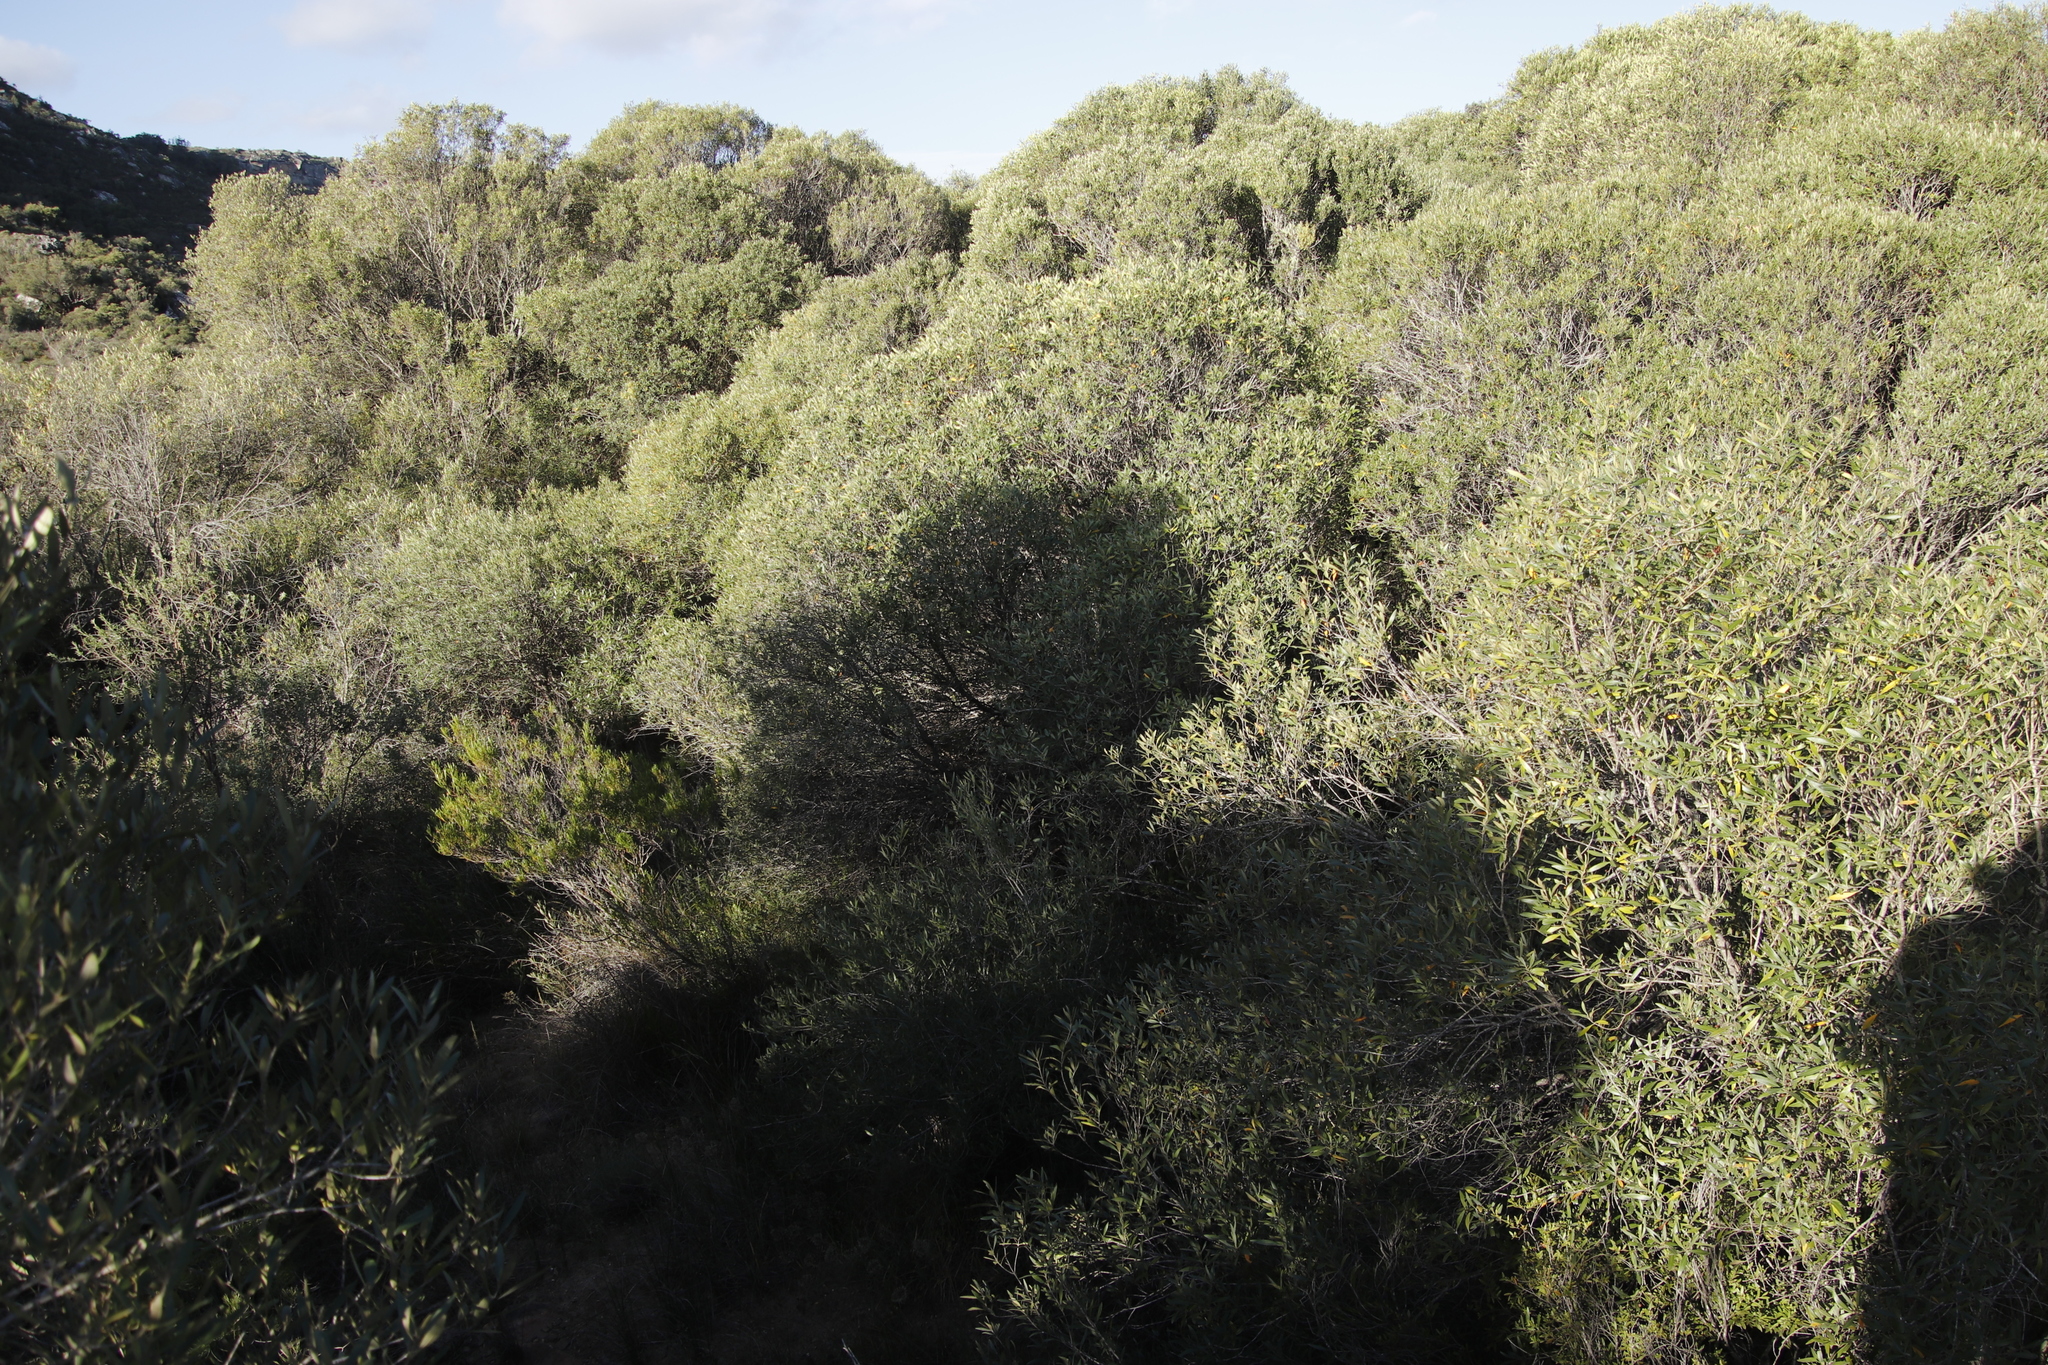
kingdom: Plantae
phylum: Tracheophyta
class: Magnoliopsida
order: Lamiales
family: Oleaceae
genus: Olea
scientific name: Olea europaea
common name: Olive
